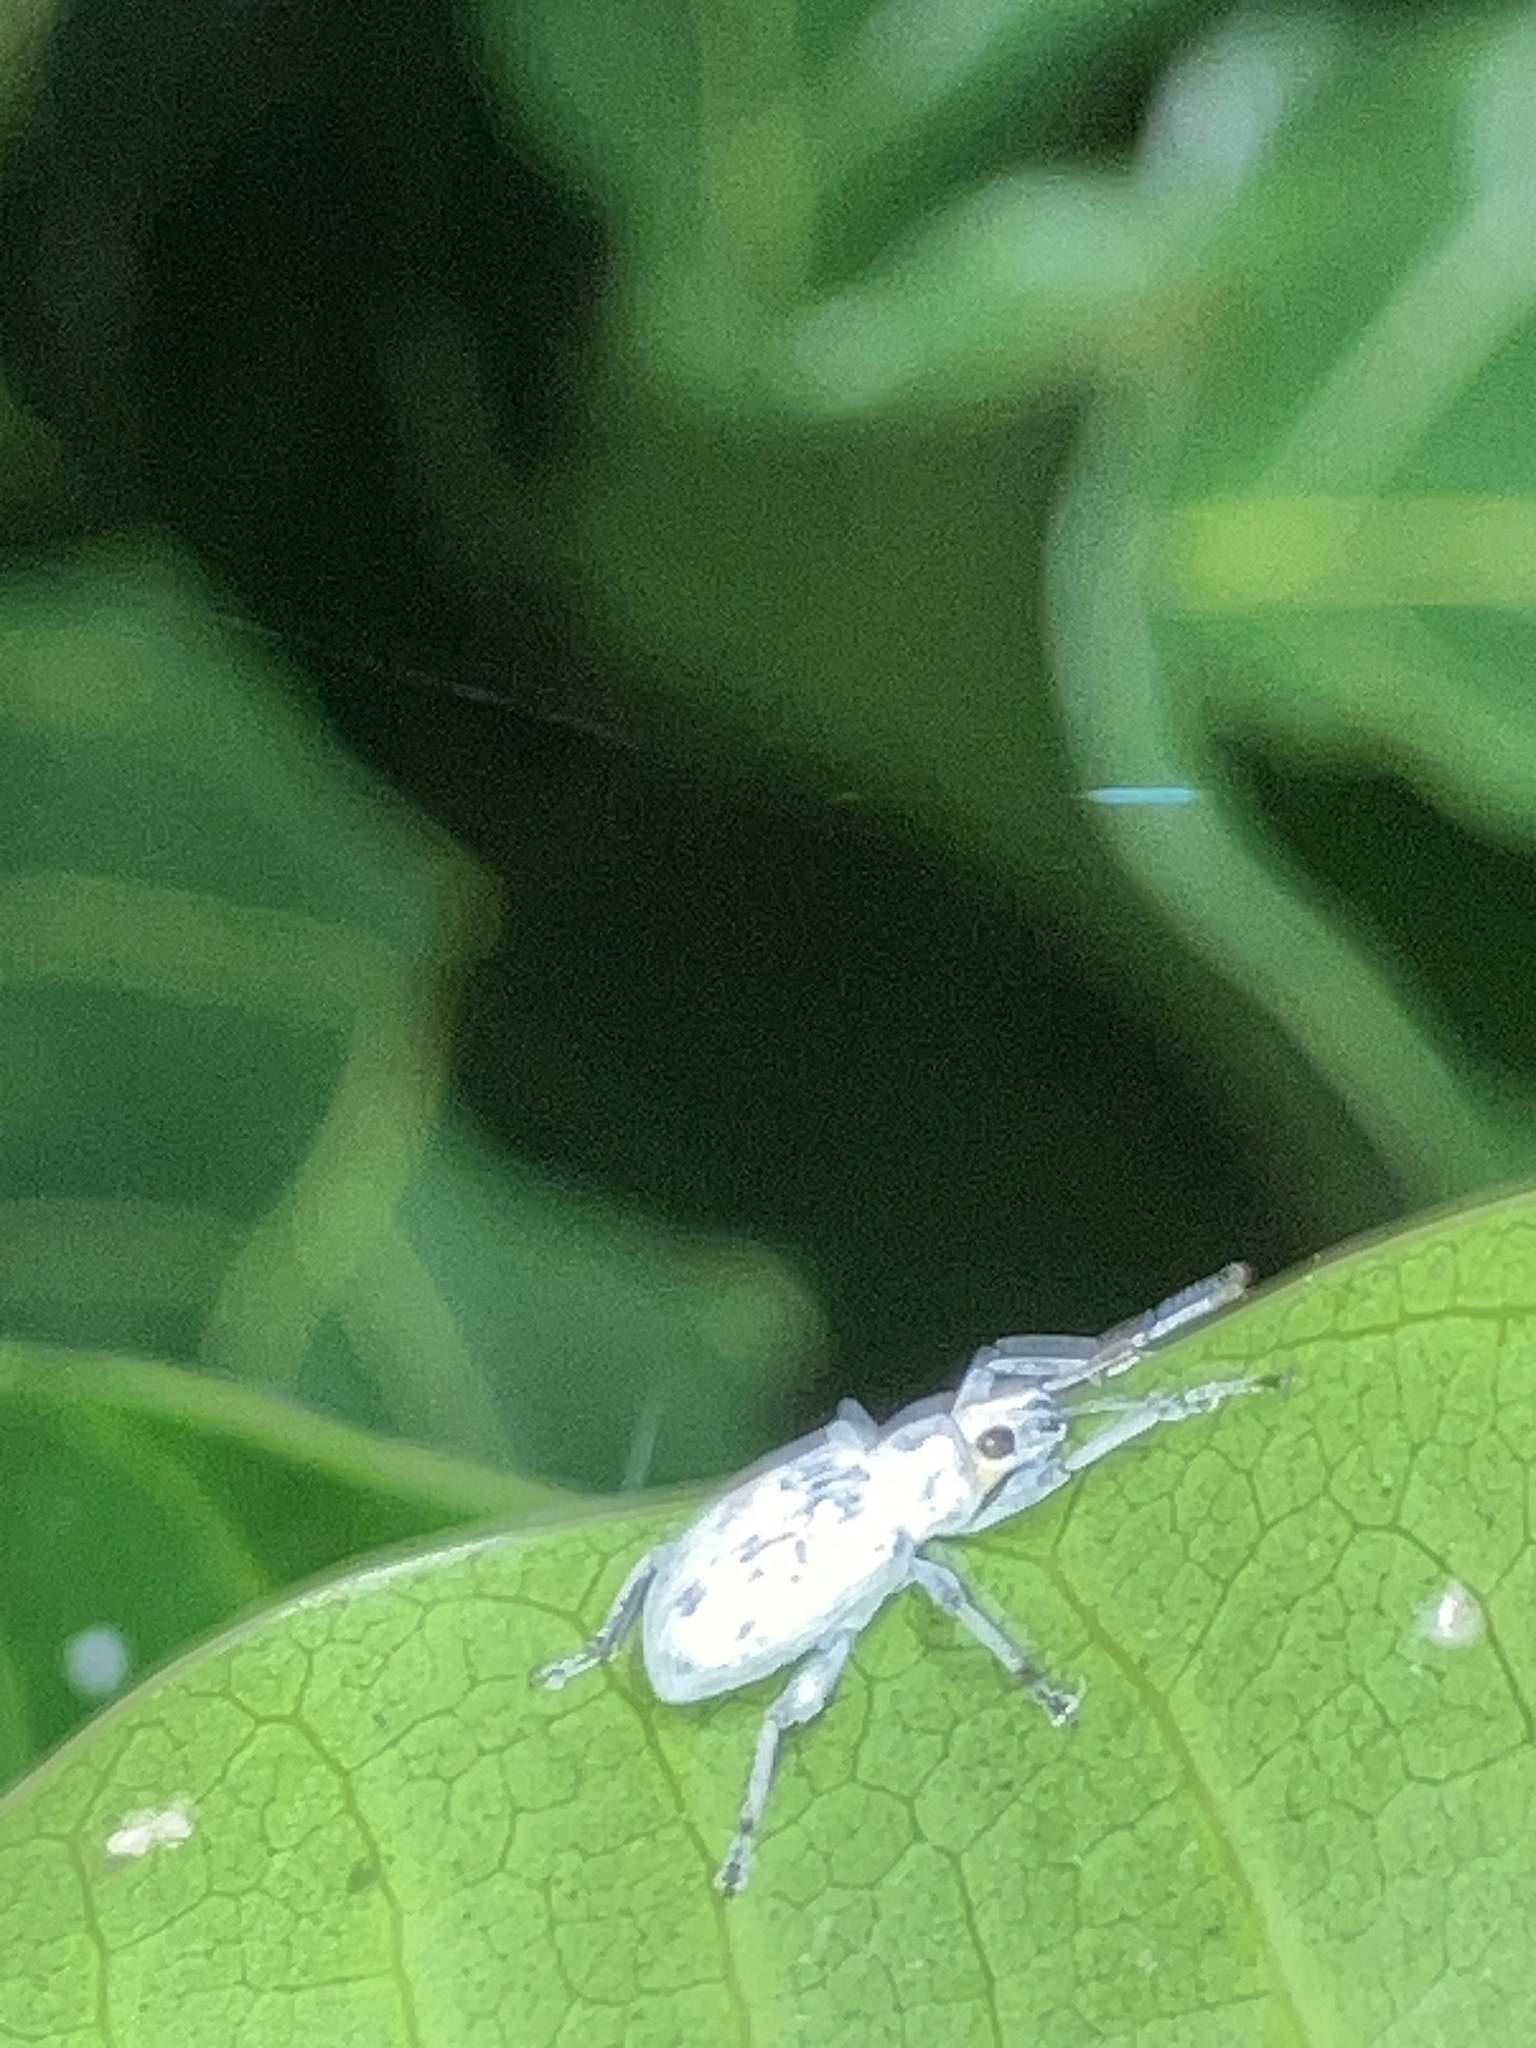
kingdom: Animalia
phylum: Arthropoda
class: Insecta
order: Coleoptera
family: Curculionidae
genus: Myllocerus
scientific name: Myllocerus undecimpustulatus
